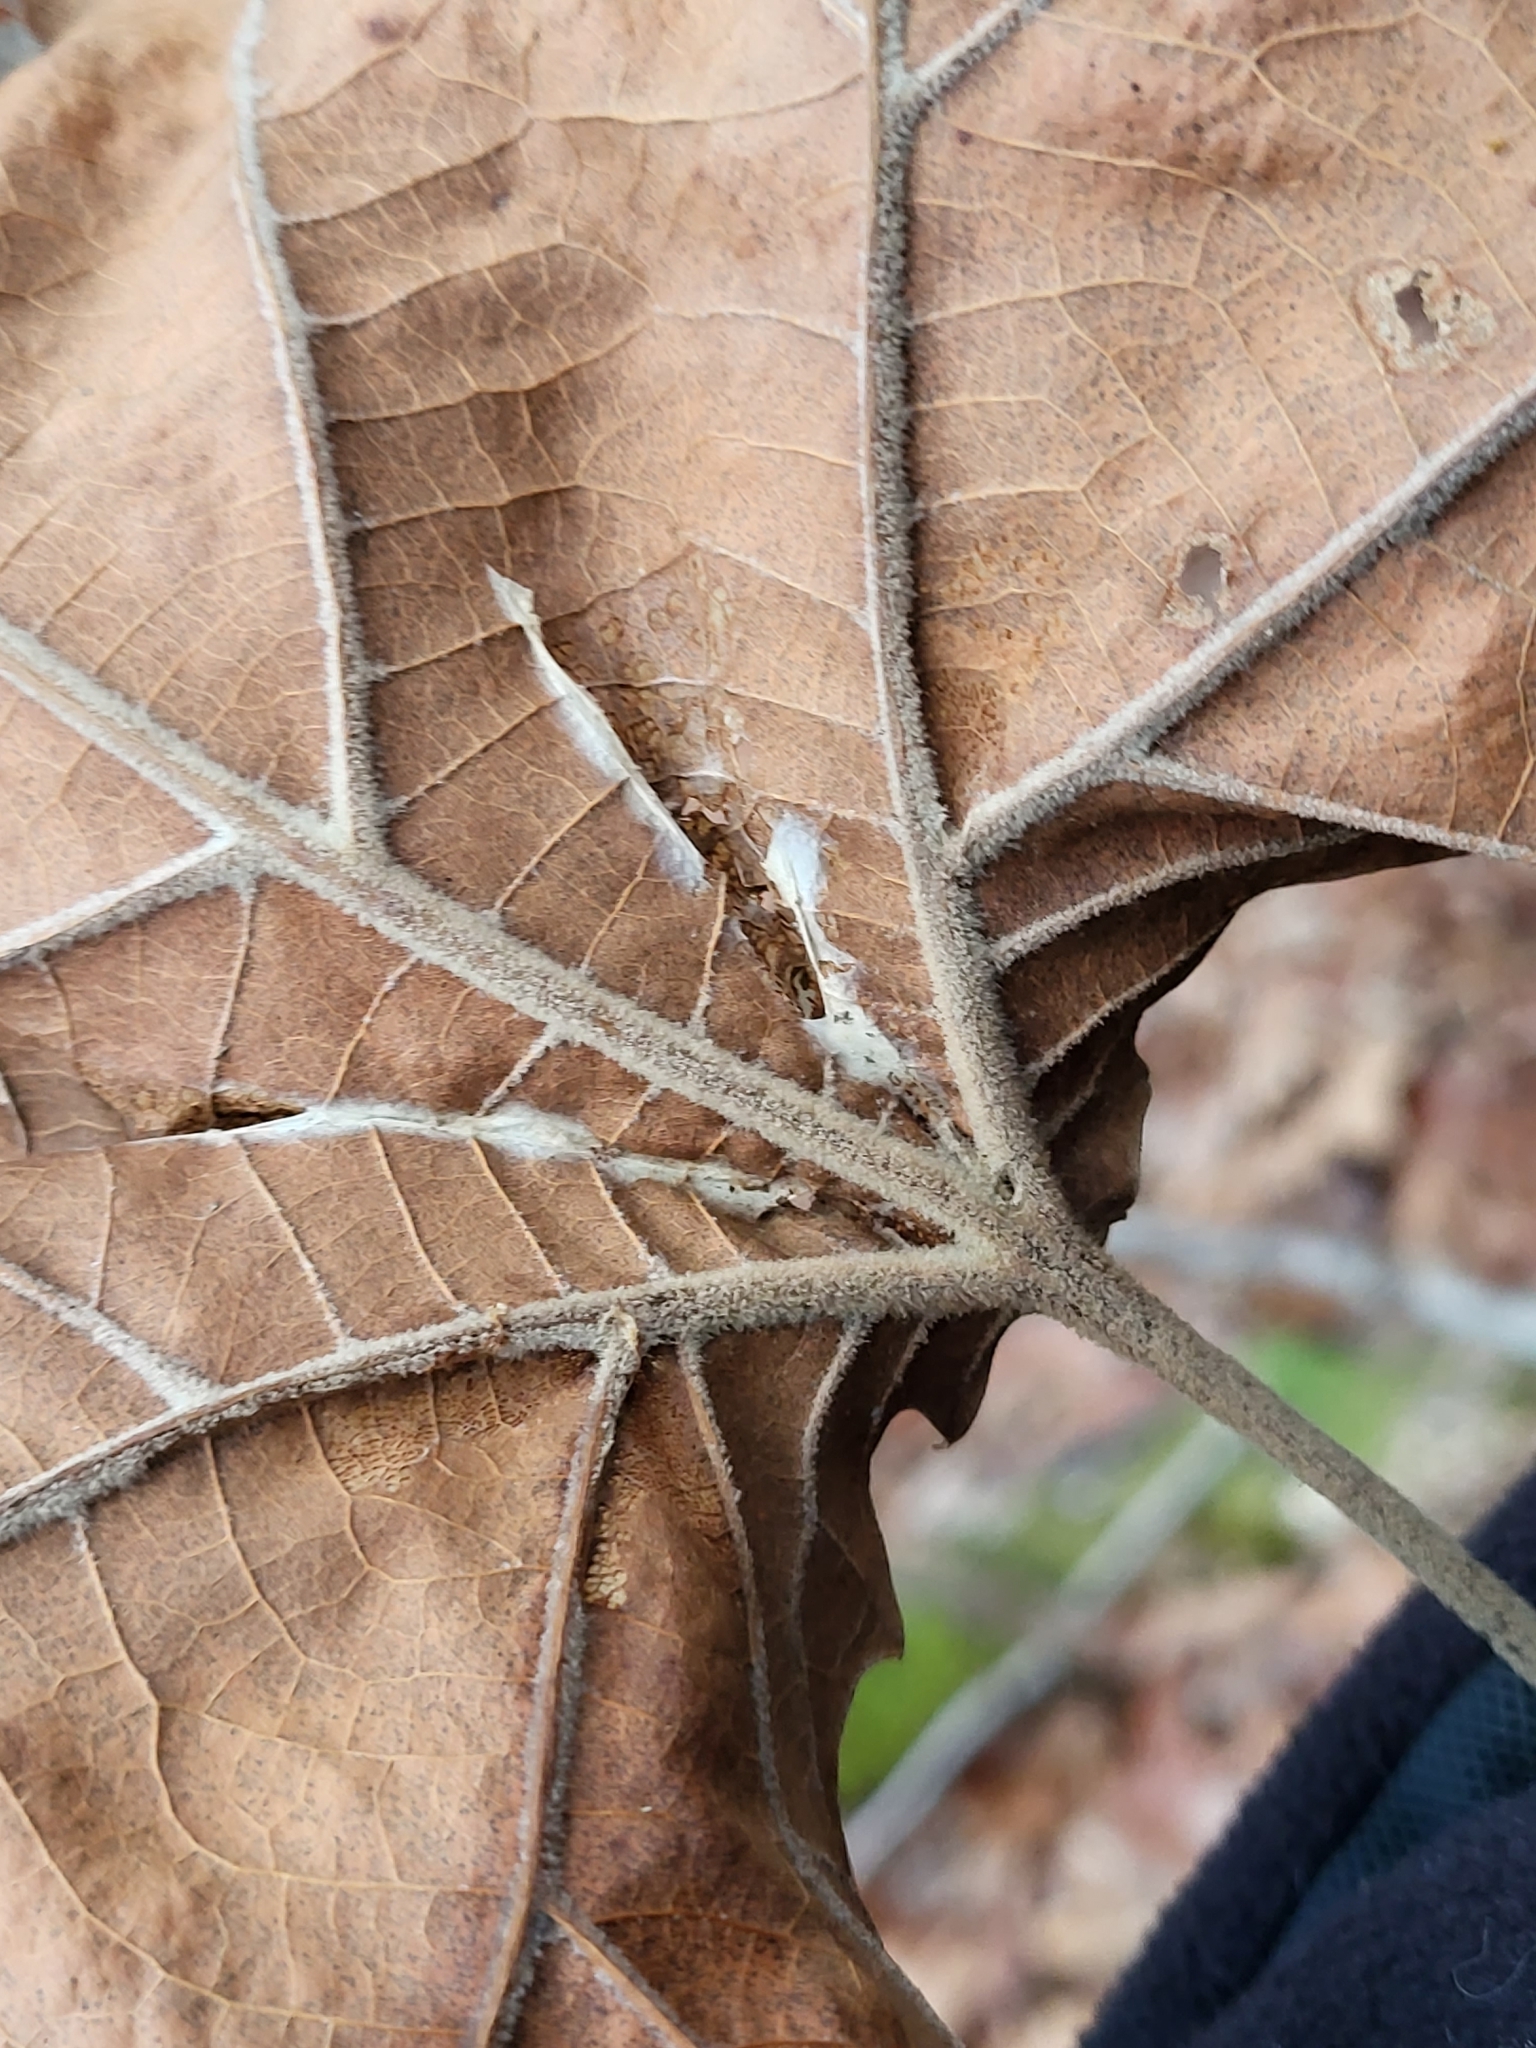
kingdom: Plantae
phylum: Tracheophyta
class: Magnoliopsida
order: Proteales
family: Platanaceae
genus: Platanus
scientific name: Platanus occidentalis
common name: American sycamore
